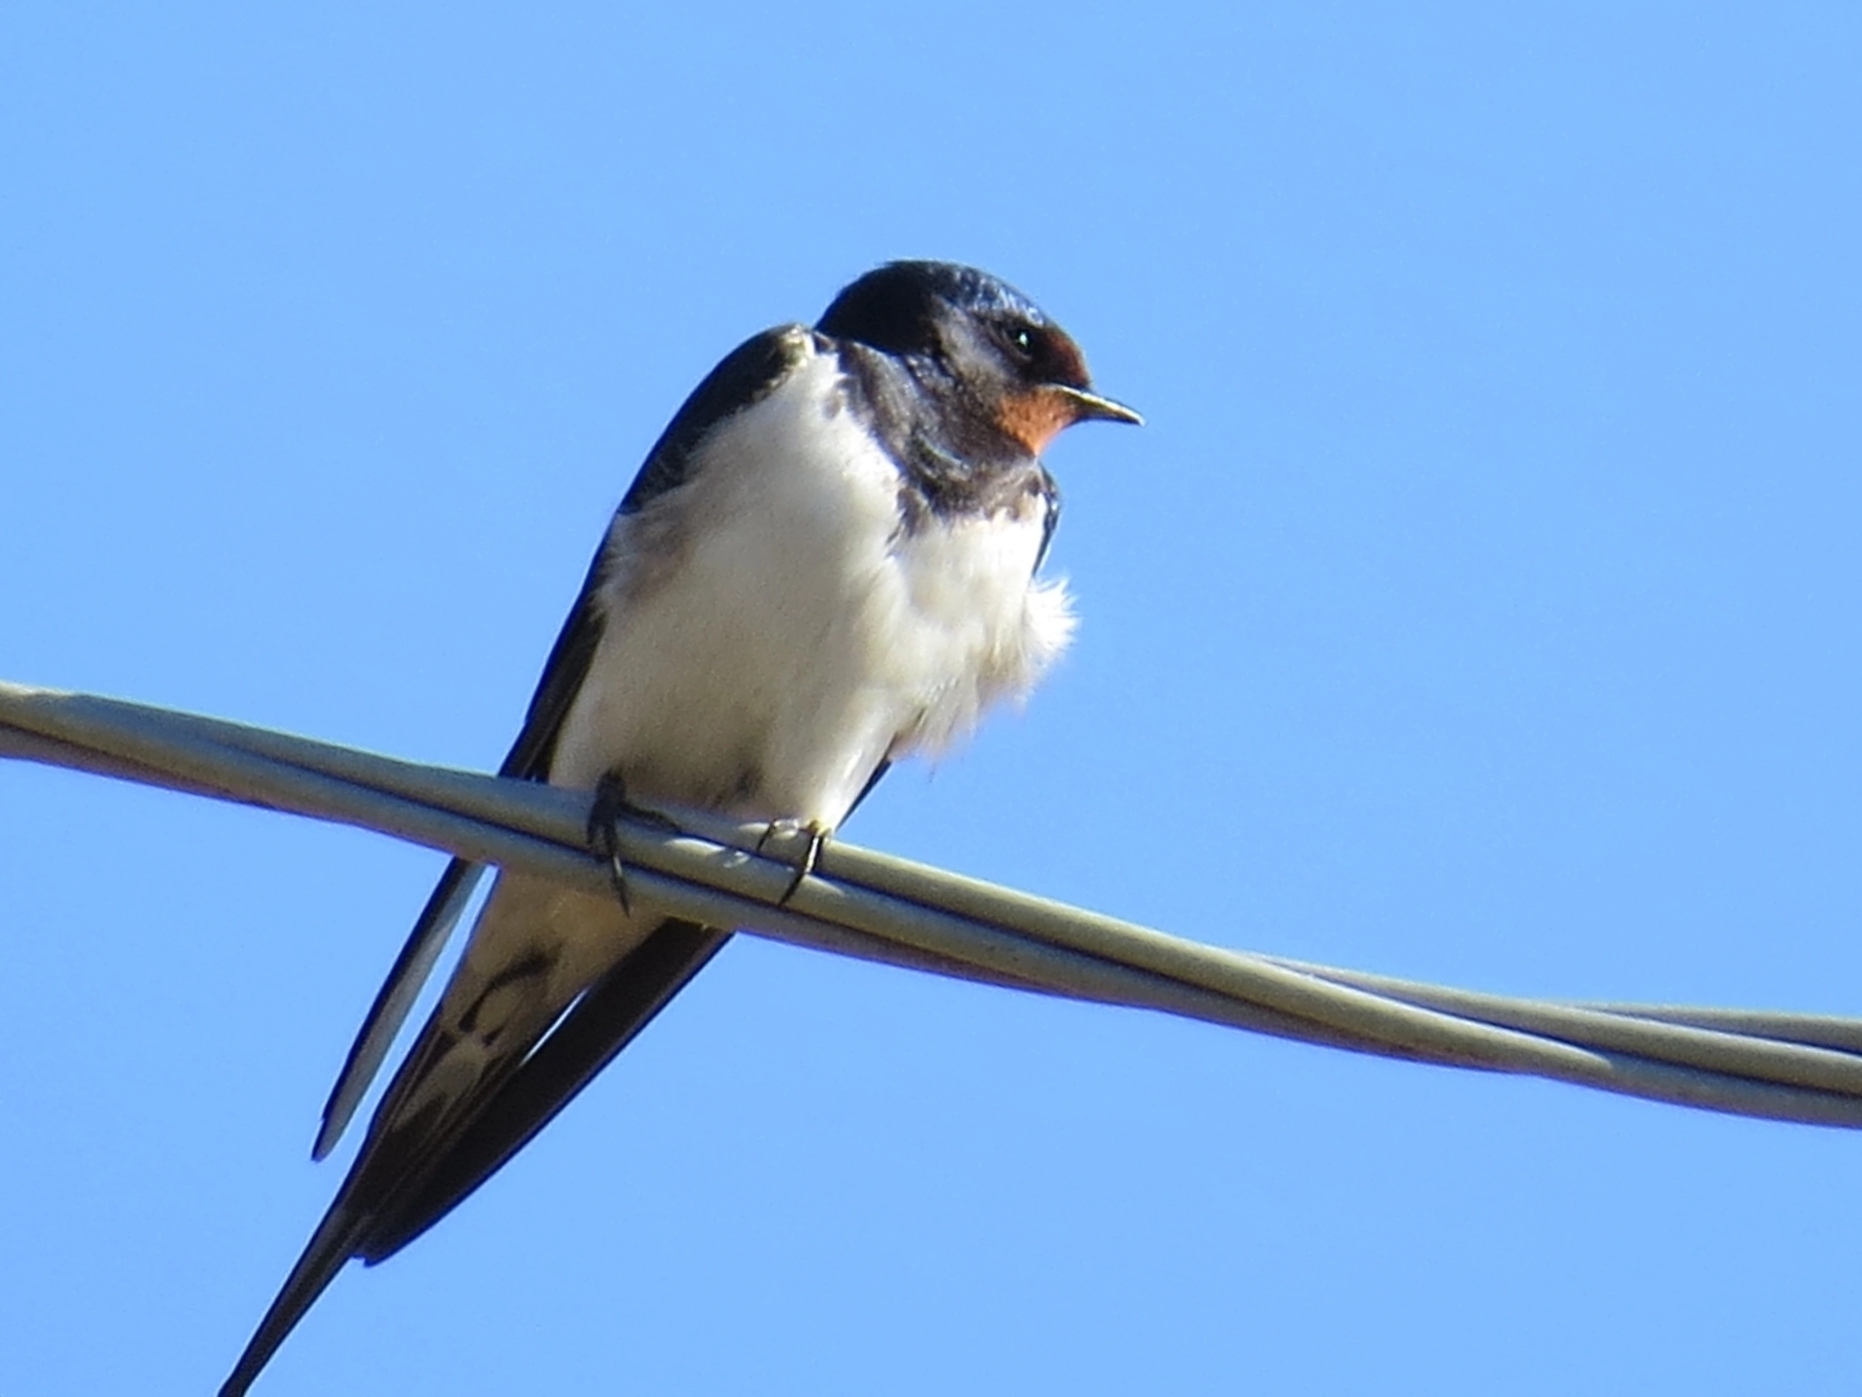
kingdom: Animalia
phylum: Chordata
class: Aves
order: Passeriformes
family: Hirundinidae
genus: Hirundo
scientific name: Hirundo rustica
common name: Barn swallow
